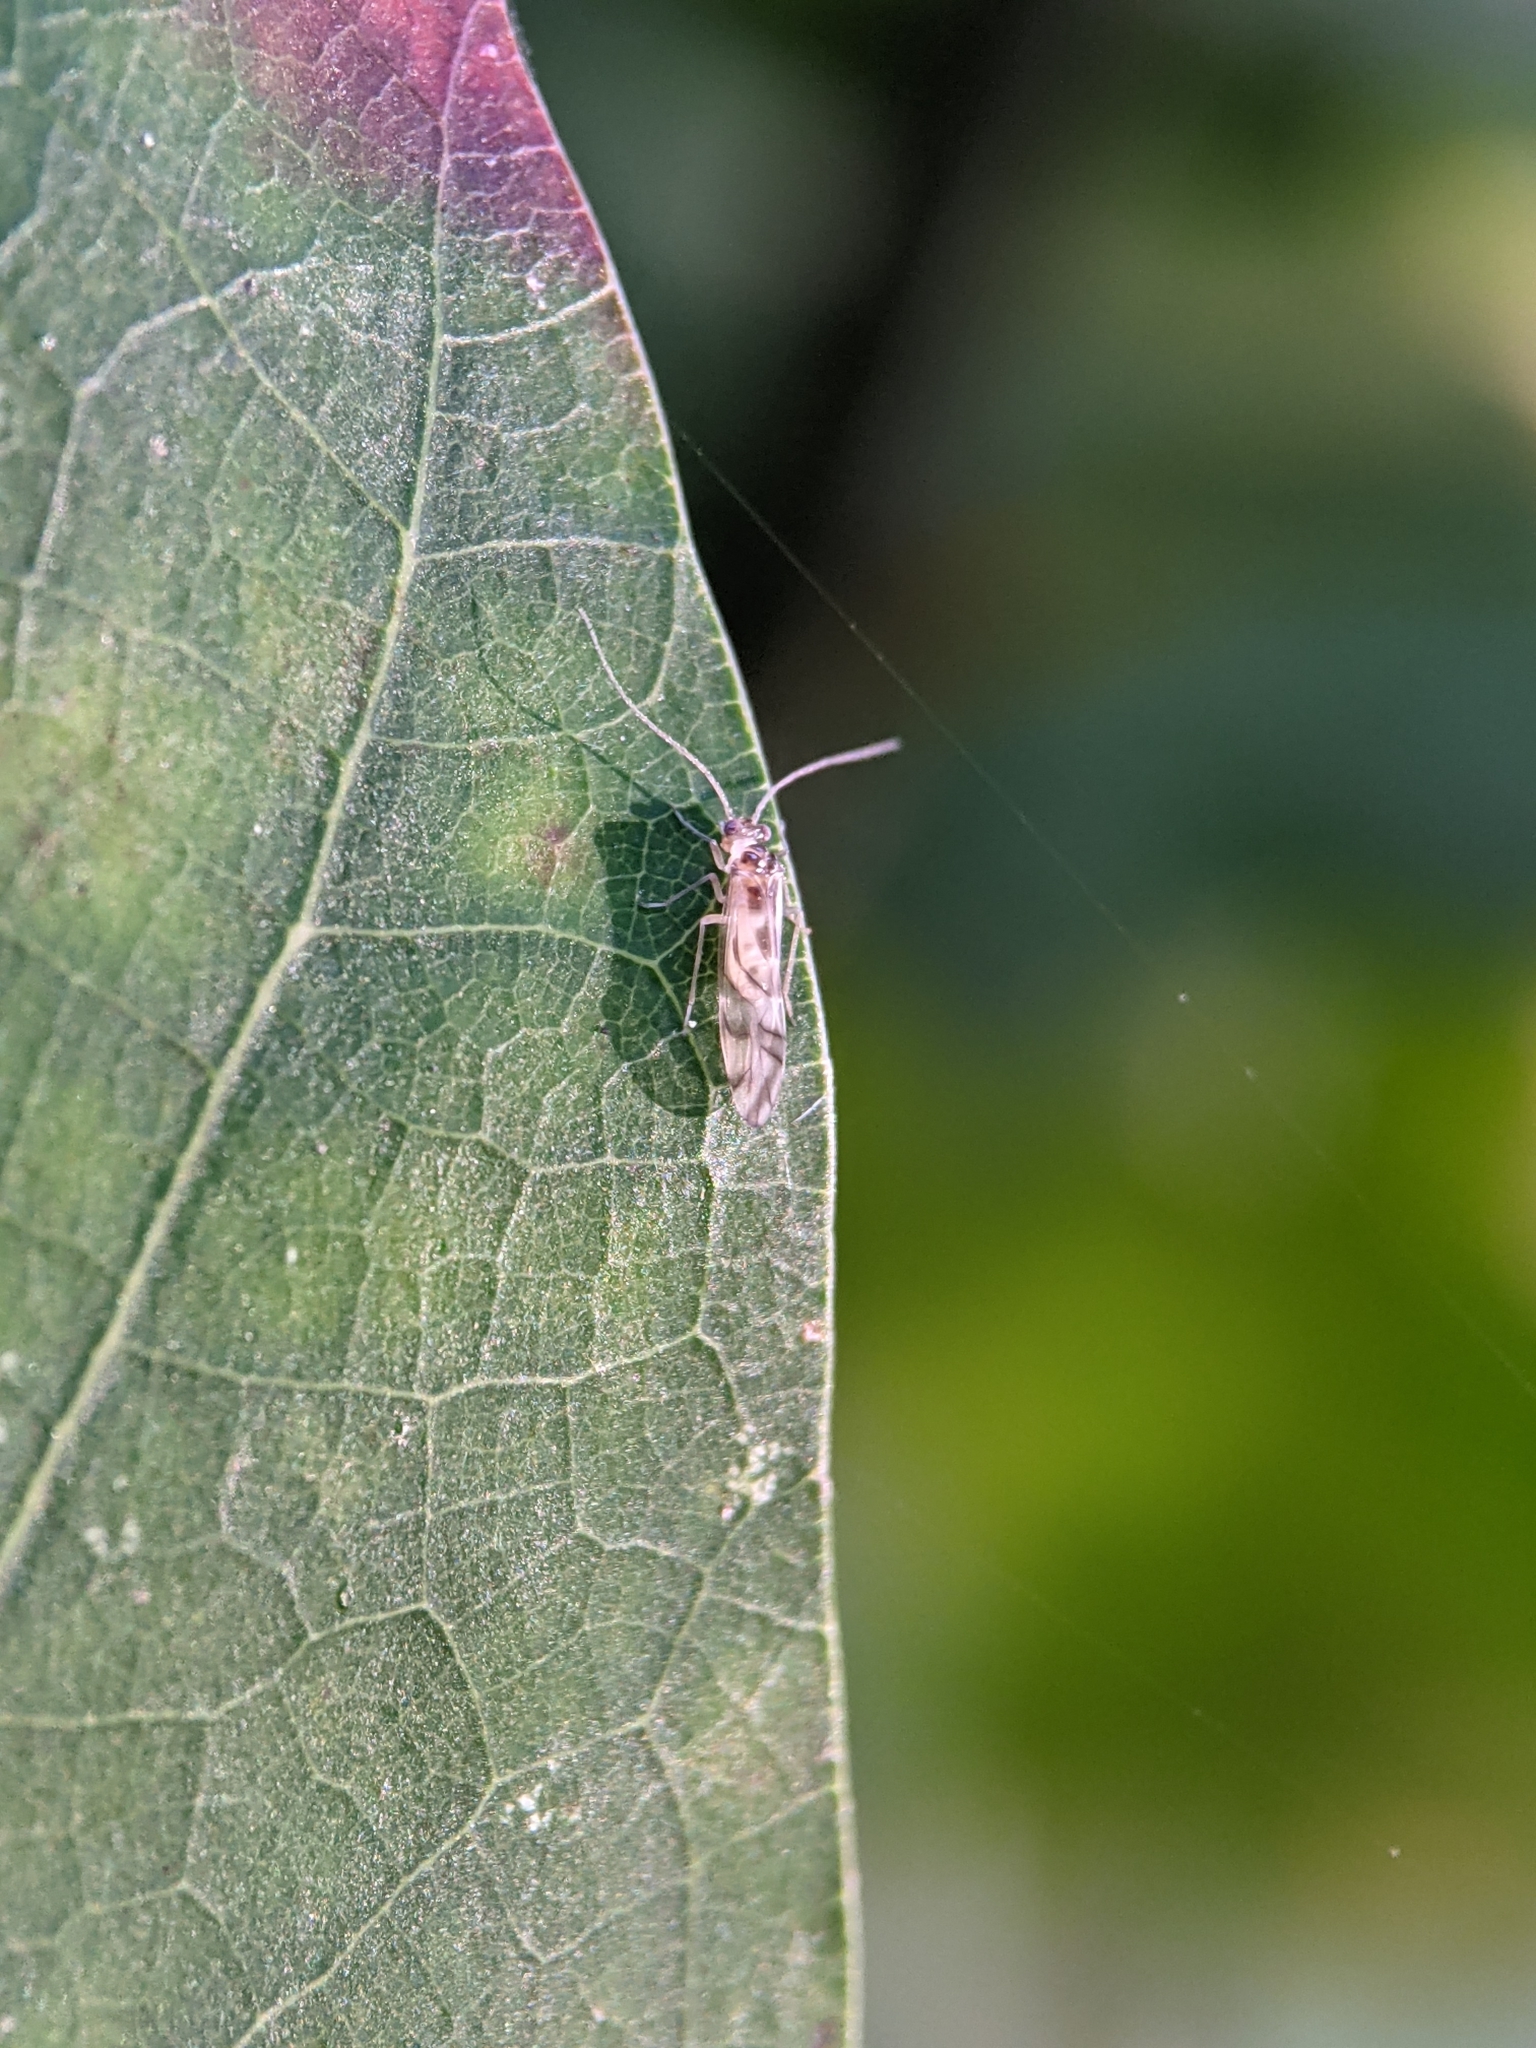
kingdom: Animalia
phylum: Arthropoda
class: Insecta
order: Psocodea
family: Stenopsocidae
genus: Graphopsocus
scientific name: Graphopsocus cruciatus
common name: Lizard bark louse
